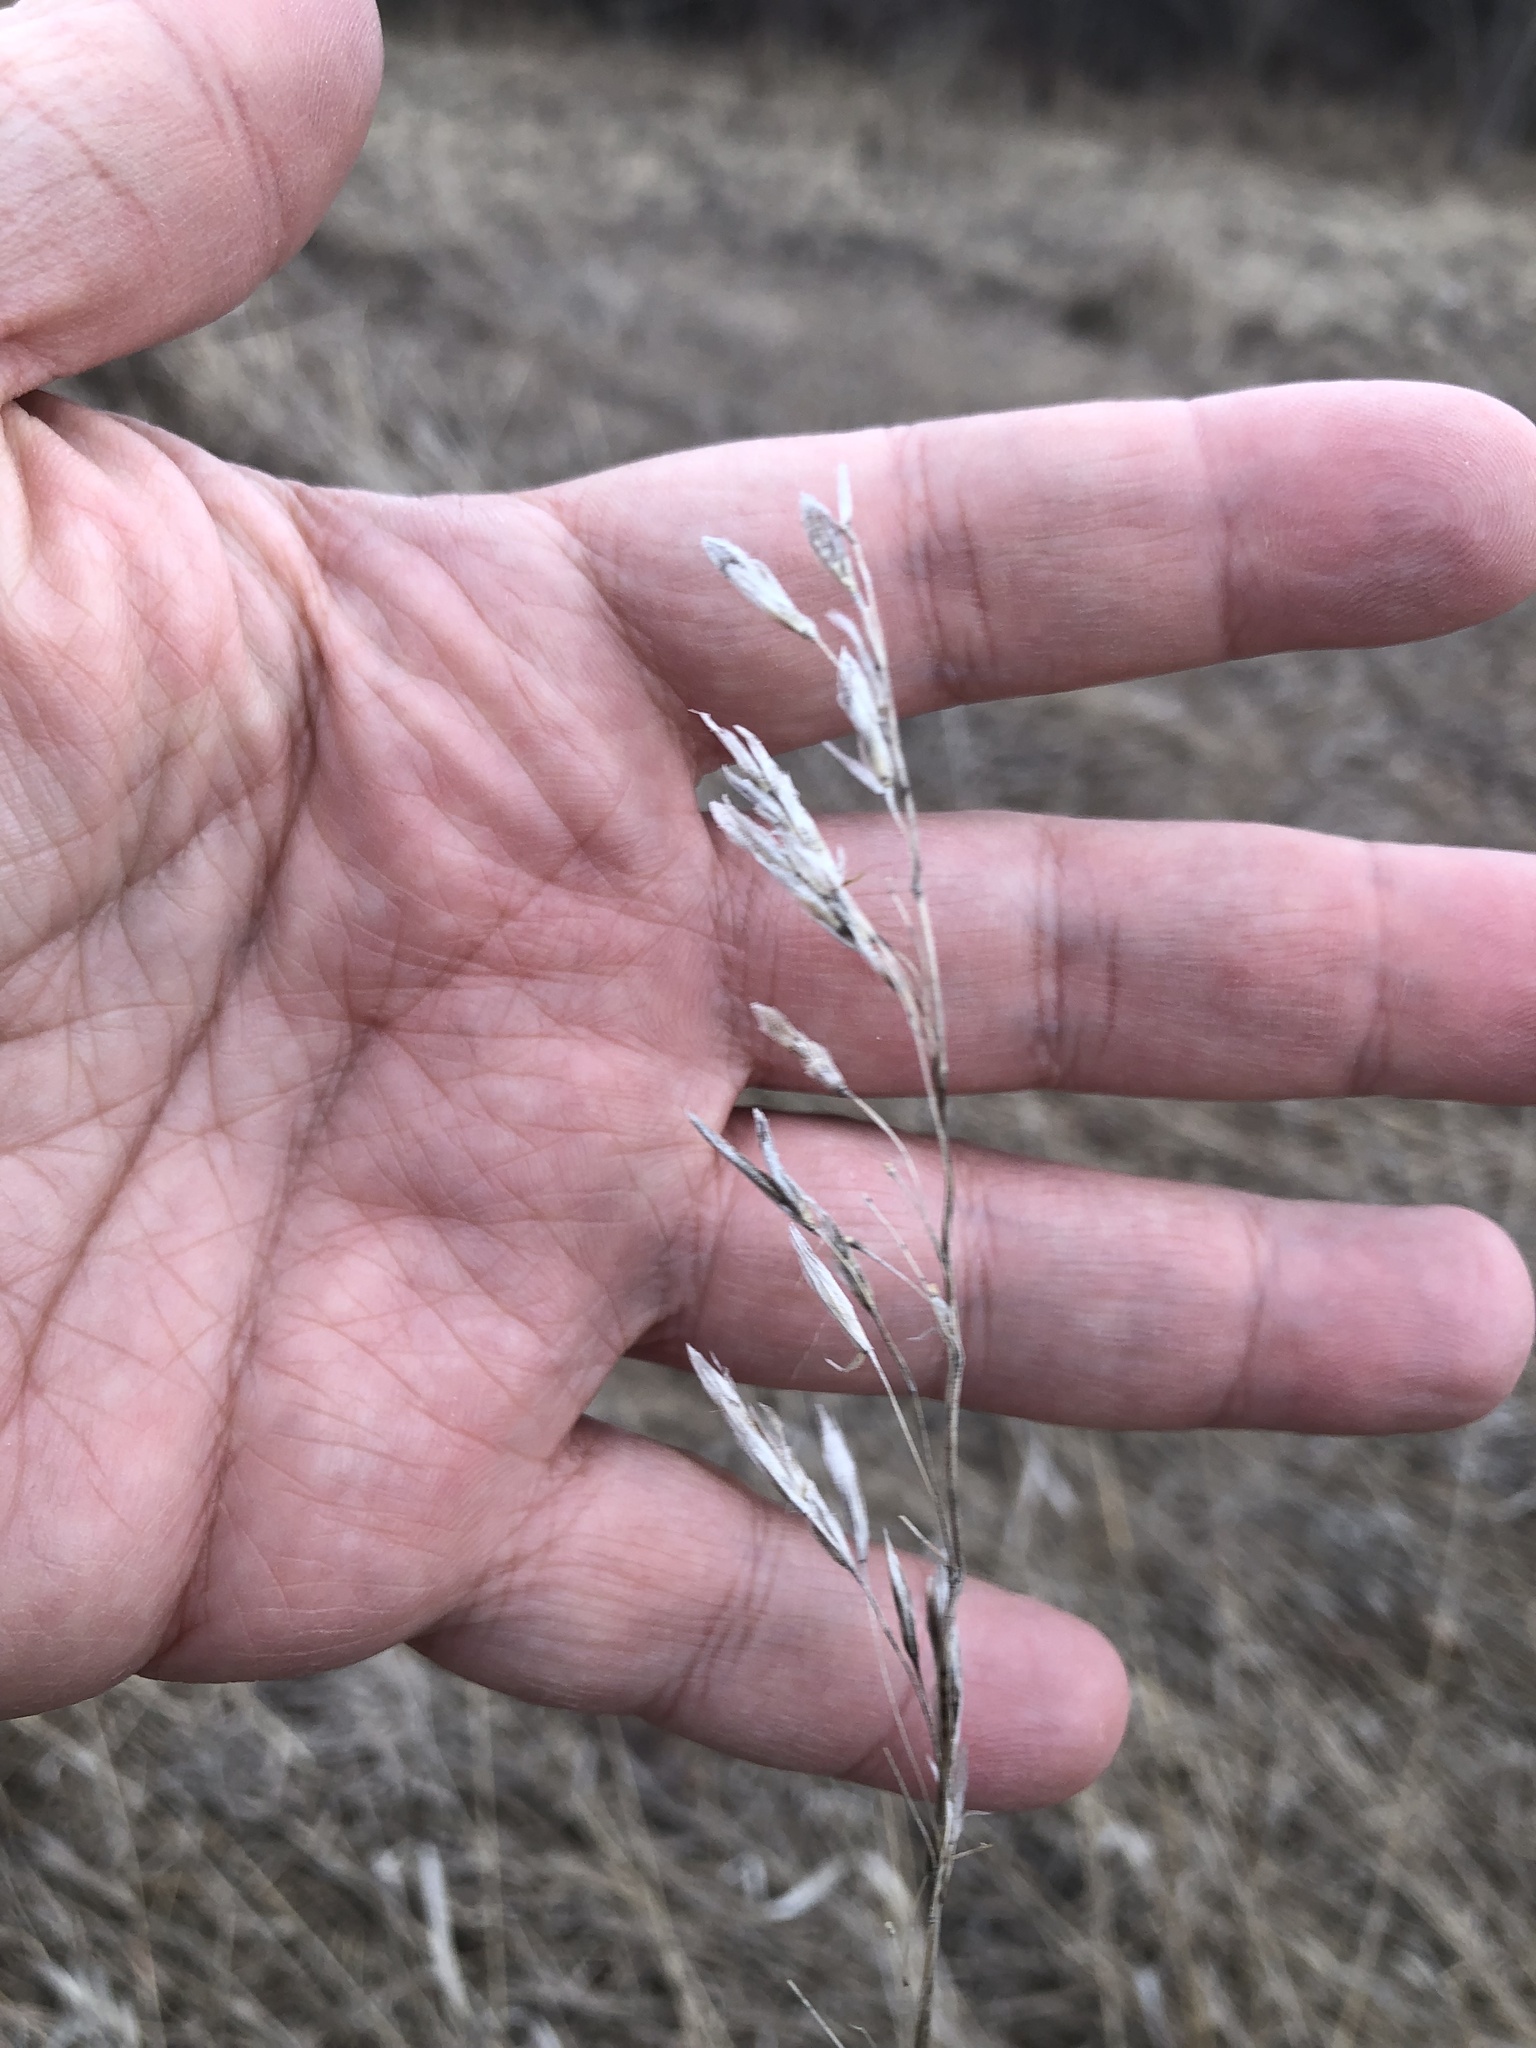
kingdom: Plantae
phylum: Tracheophyta
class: Liliopsida
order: Poales
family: Poaceae
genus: Bromus
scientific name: Bromus inermis
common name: Smooth brome
